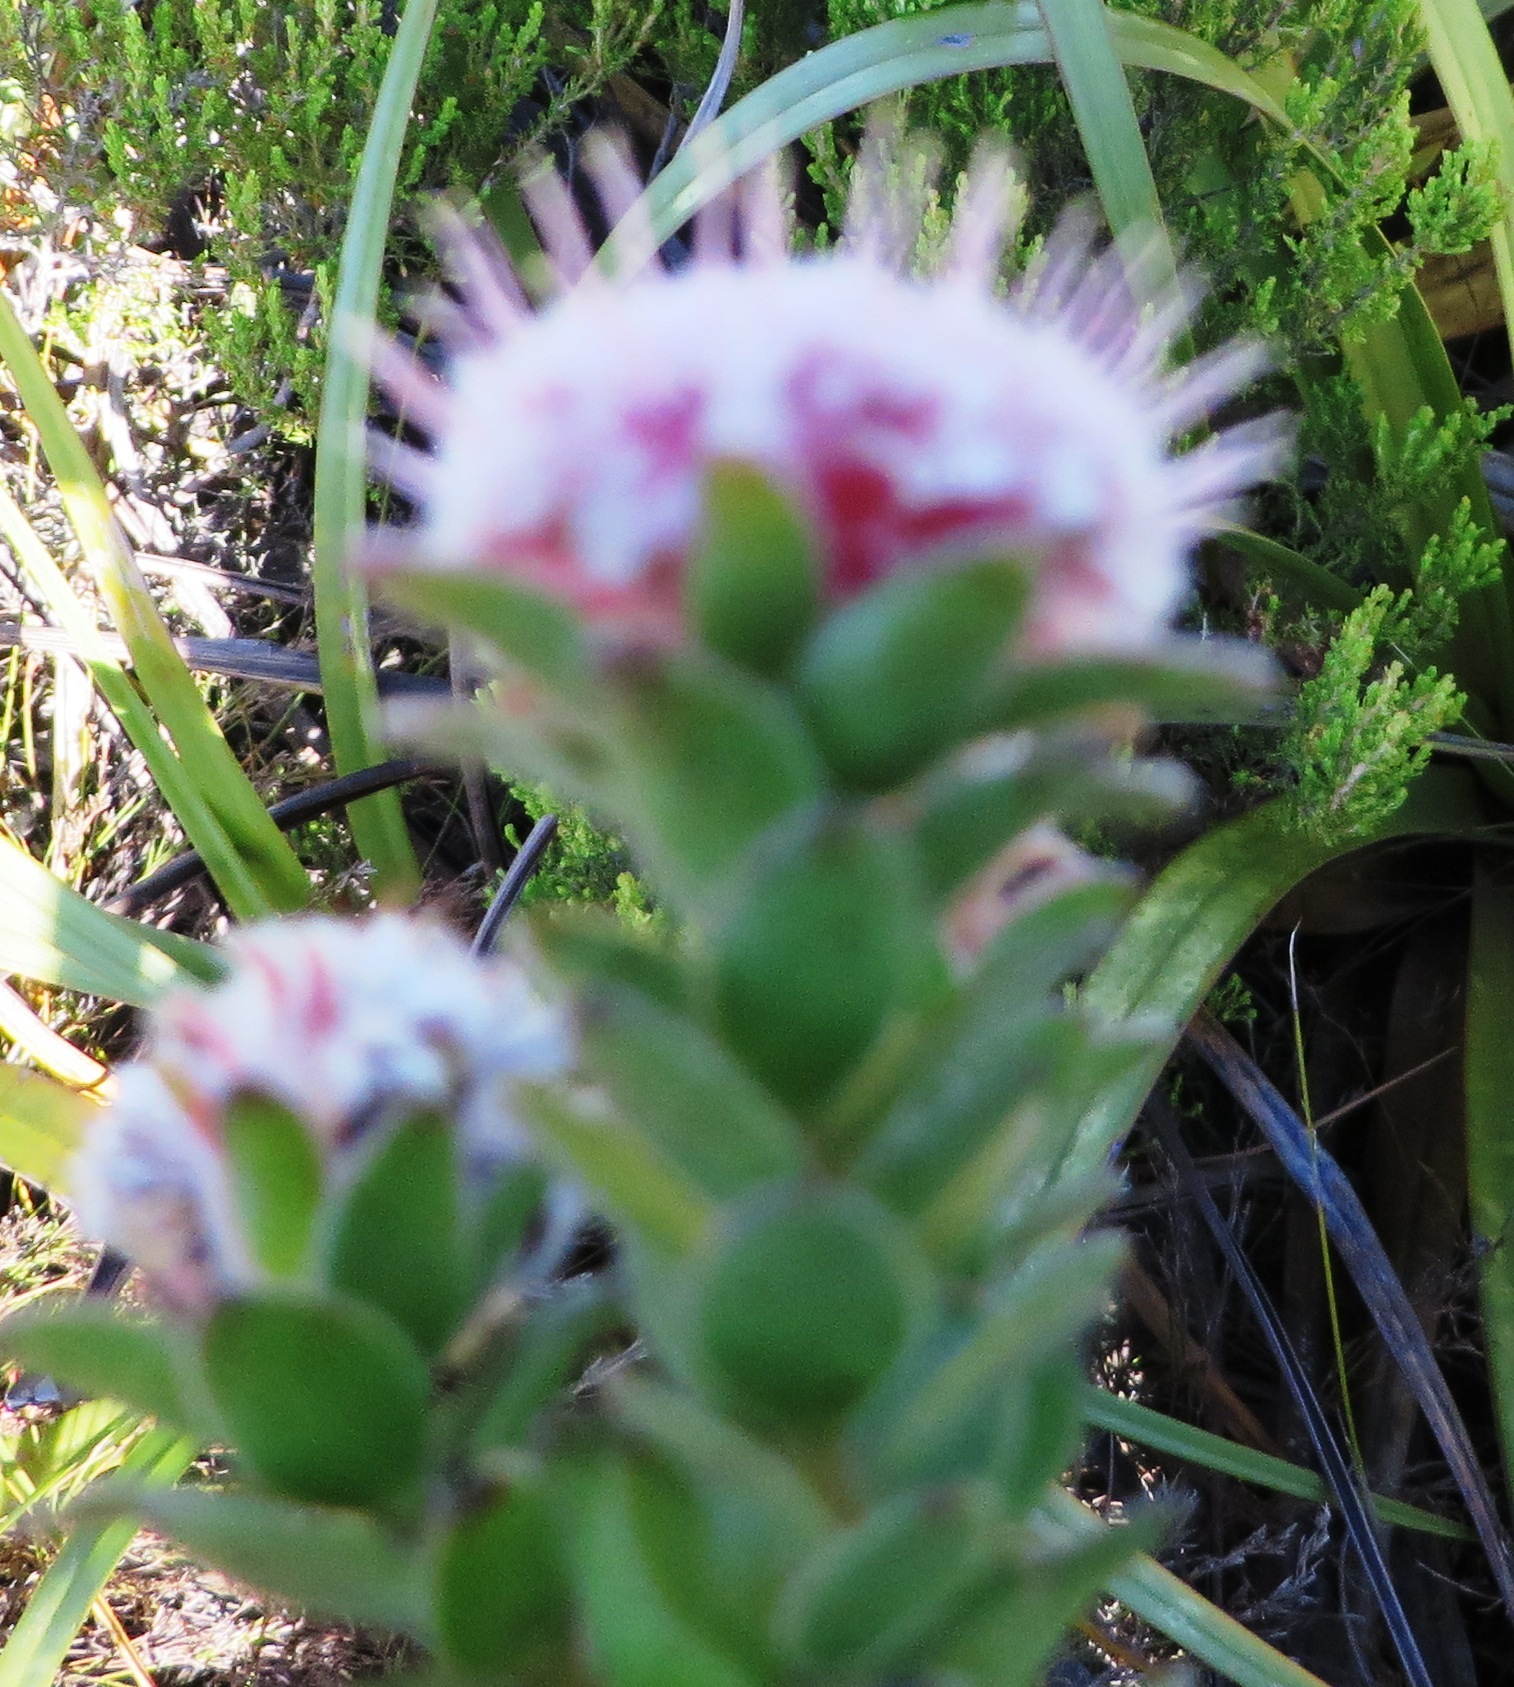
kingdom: Plantae
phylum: Tracheophyta
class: Magnoliopsida
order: Proteales
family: Proteaceae
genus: Diastella
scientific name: Diastella thymelaeoides
